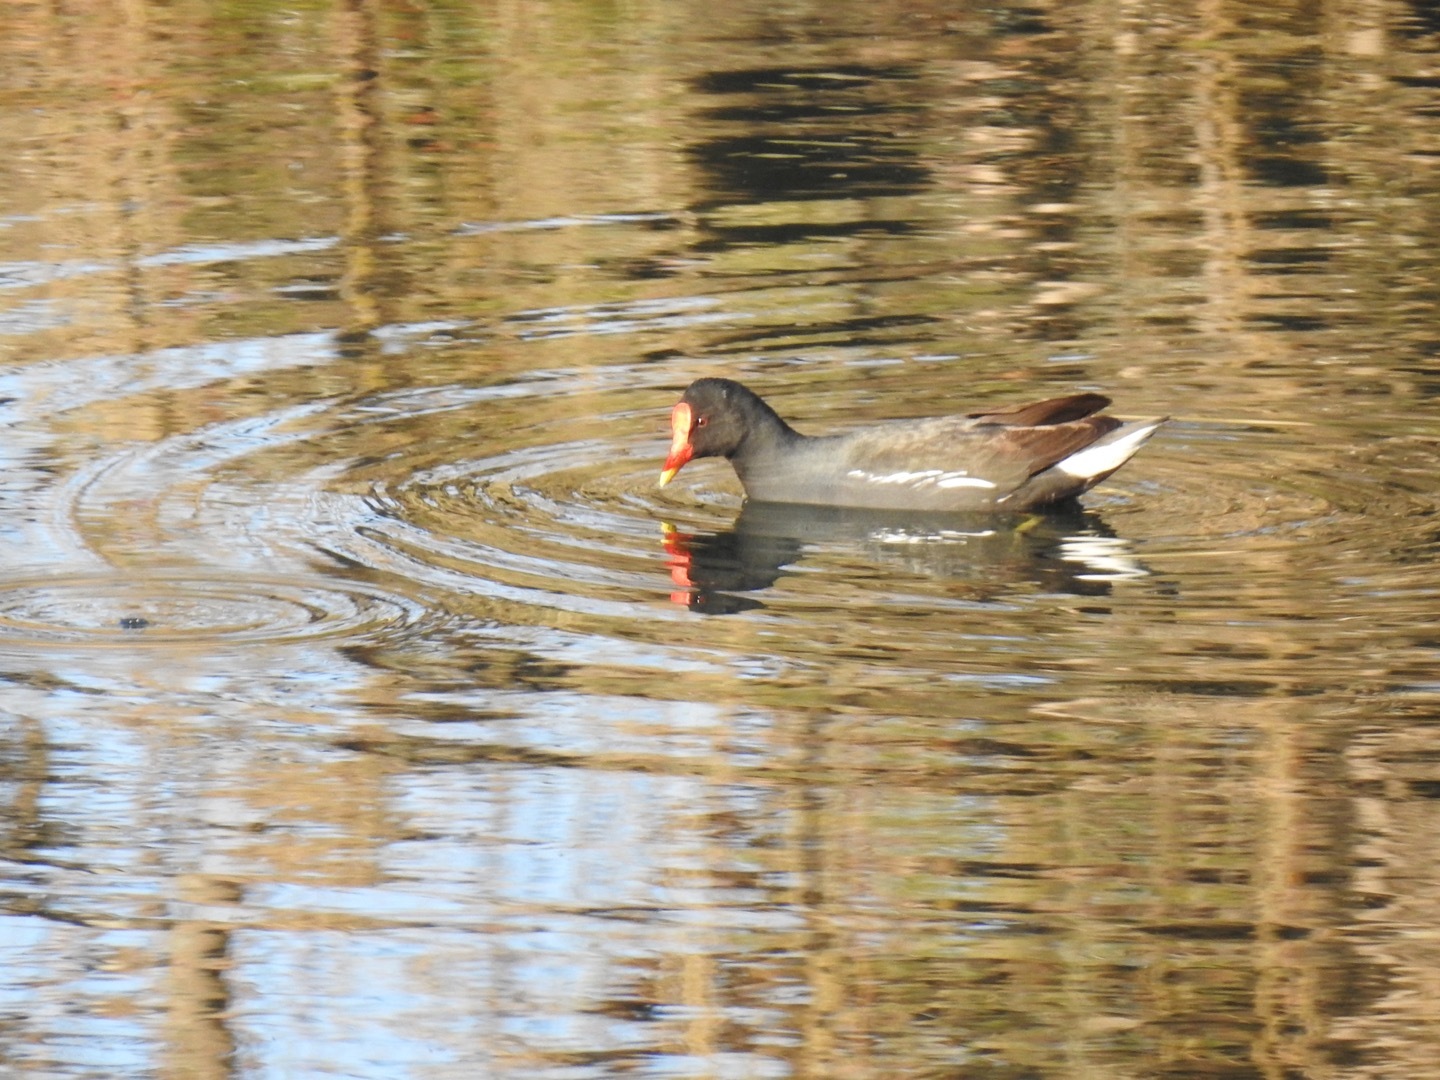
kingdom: Animalia
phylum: Chordata
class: Aves
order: Gruiformes
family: Rallidae
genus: Gallinula
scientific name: Gallinula chloropus
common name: Common moorhen
